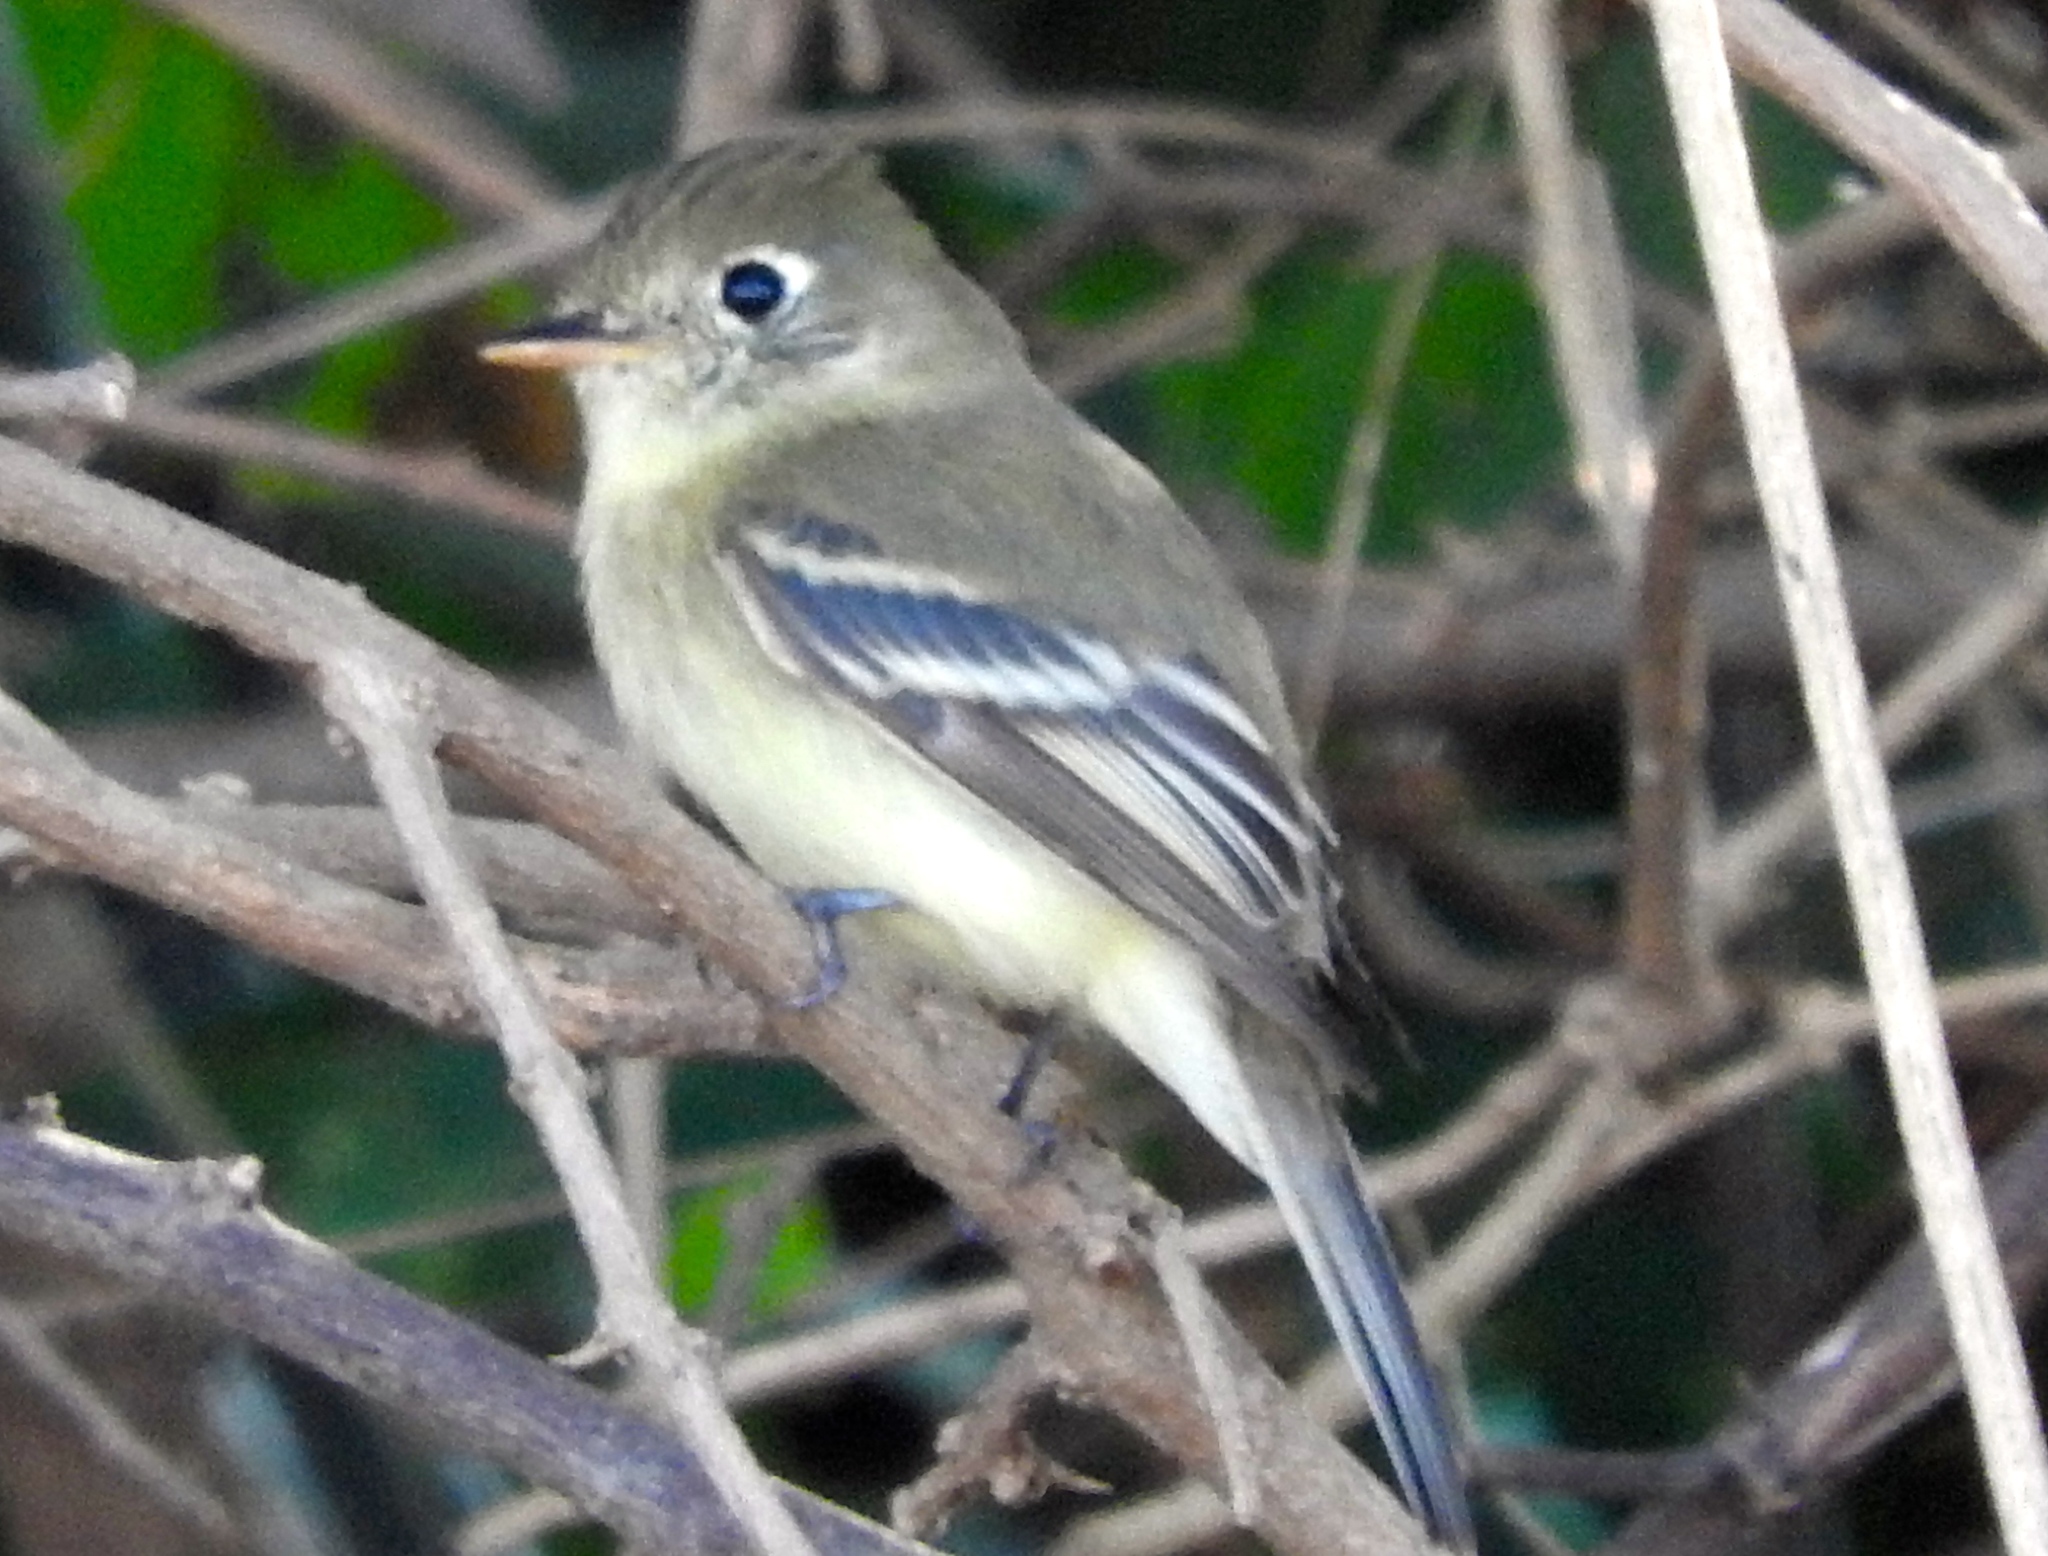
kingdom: Animalia
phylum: Chordata
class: Aves
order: Passeriformes
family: Tyrannidae
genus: Empidonax
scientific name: Empidonax difficilis
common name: Pacific-slope flycatcher
